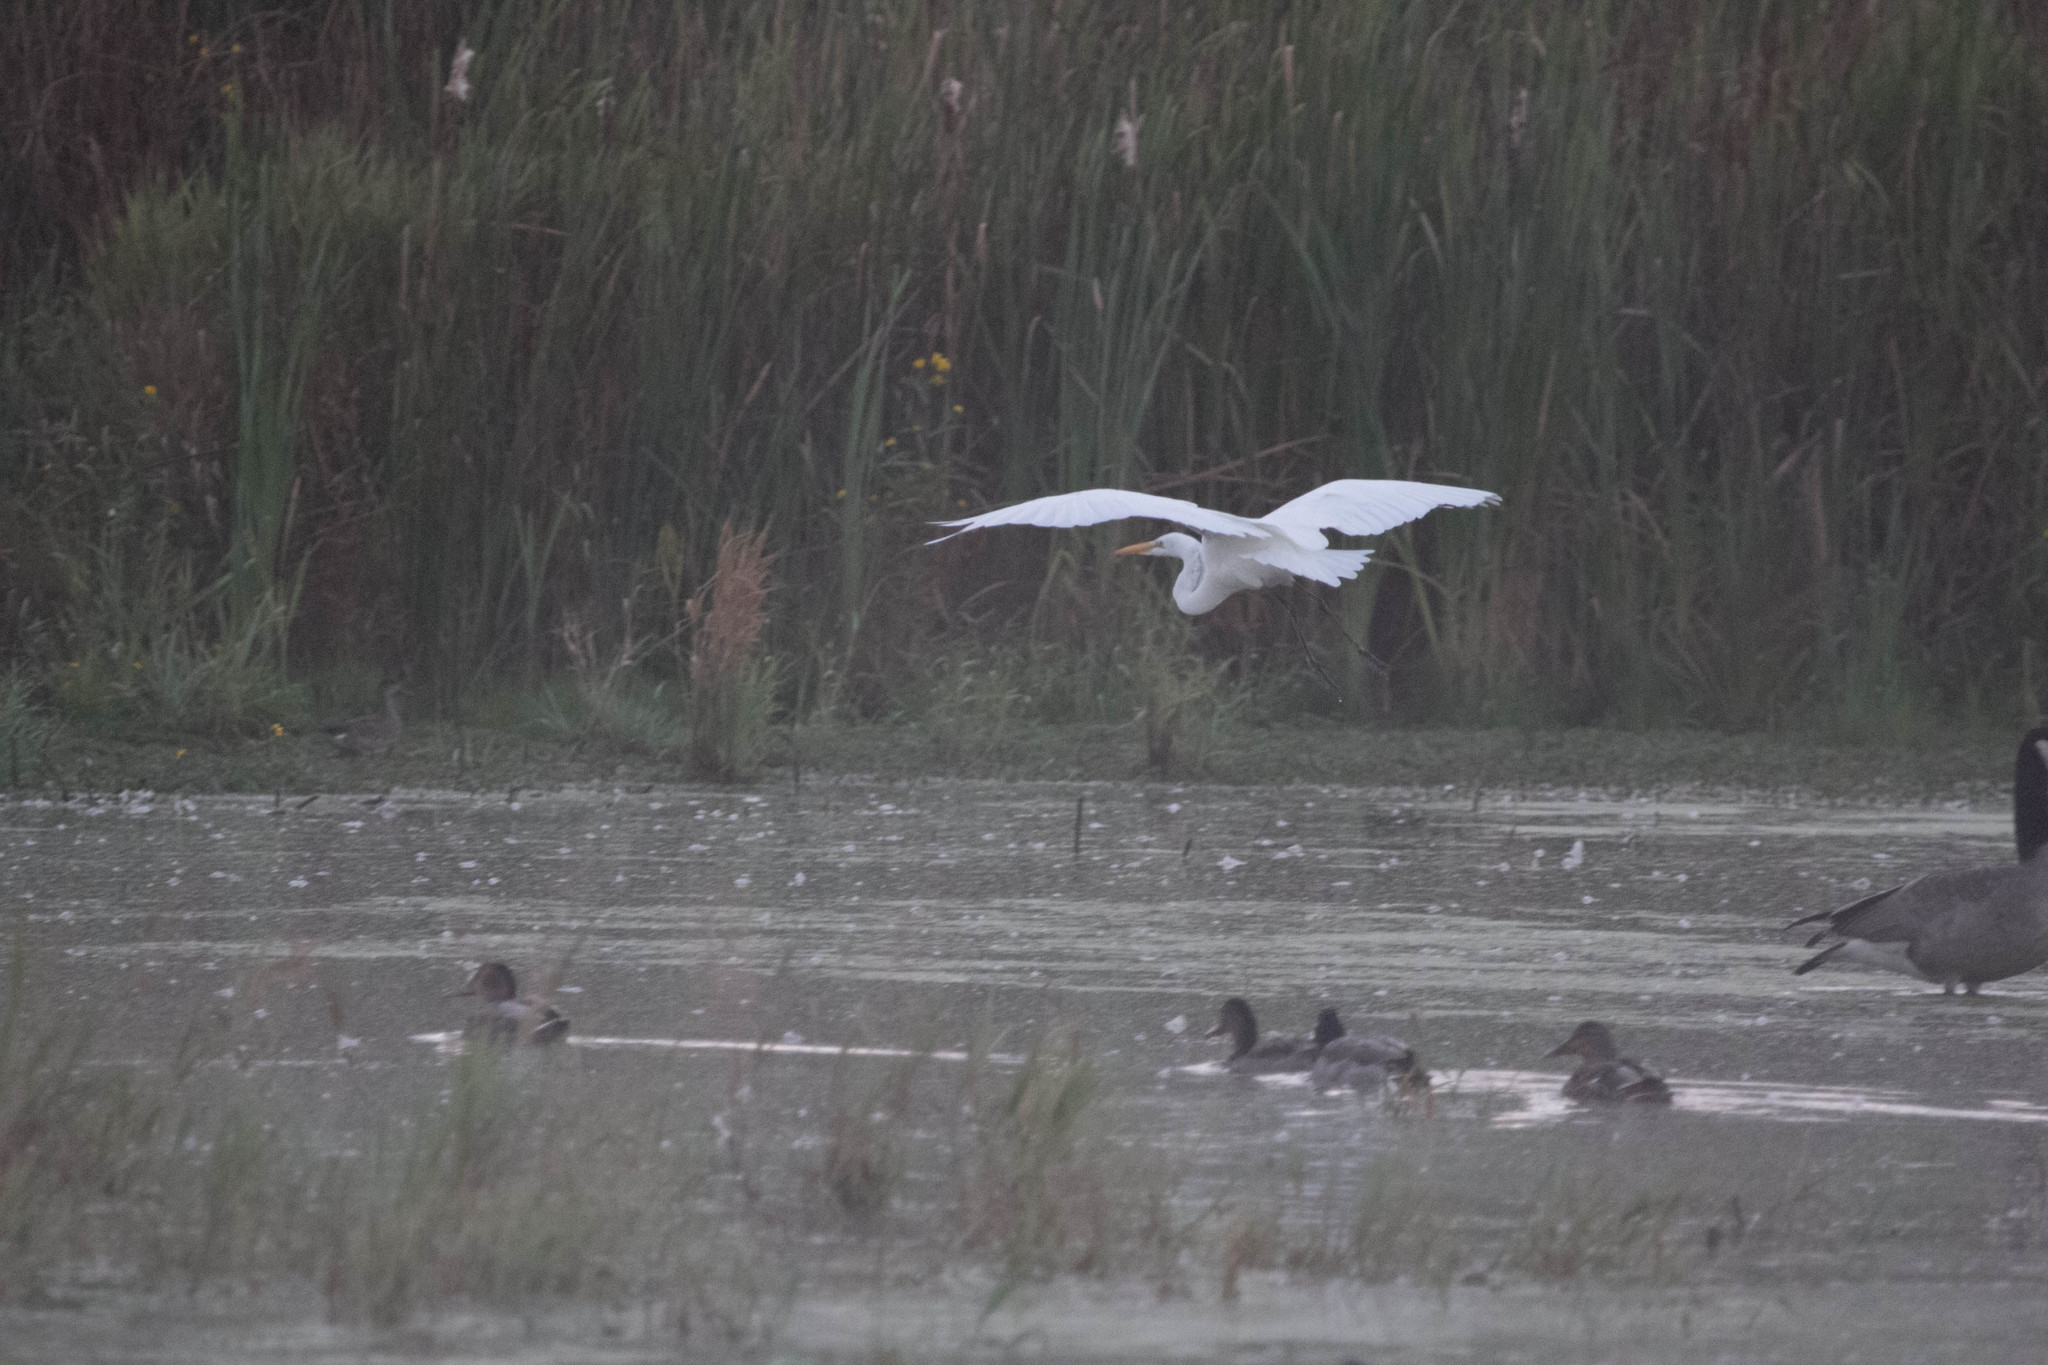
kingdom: Animalia
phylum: Chordata
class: Aves
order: Pelecaniformes
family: Ardeidae
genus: Ardea
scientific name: Ardea alba
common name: Great egret
